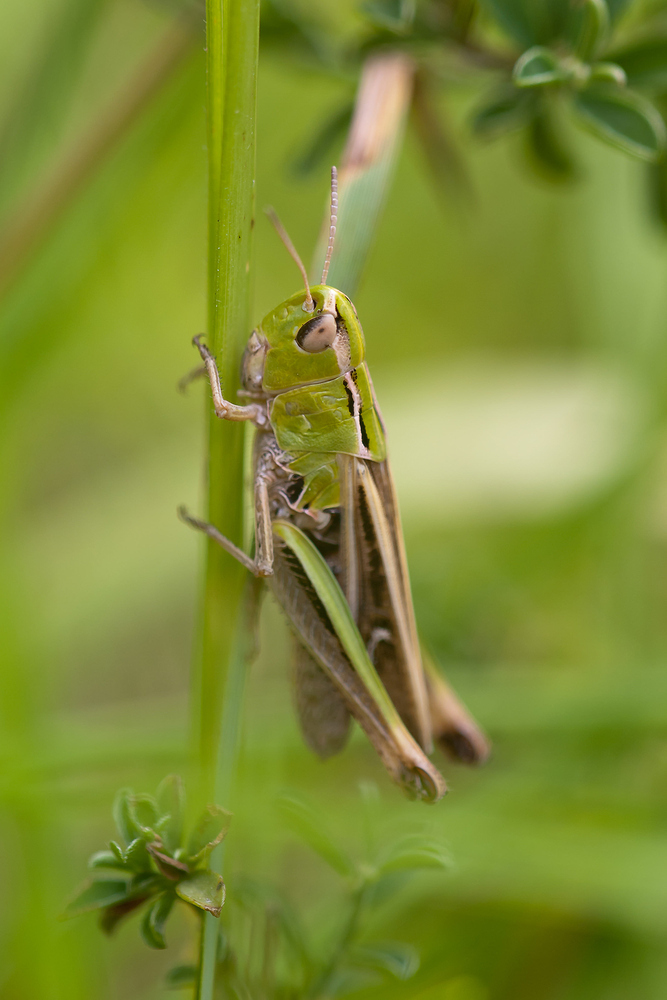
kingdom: Animalia
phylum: Arthropoda
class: Insecta
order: Orthoptera
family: Acrididae
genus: Stenobothrus
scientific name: Stenobothrus lineatus
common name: Stripe-winged grasshopper
